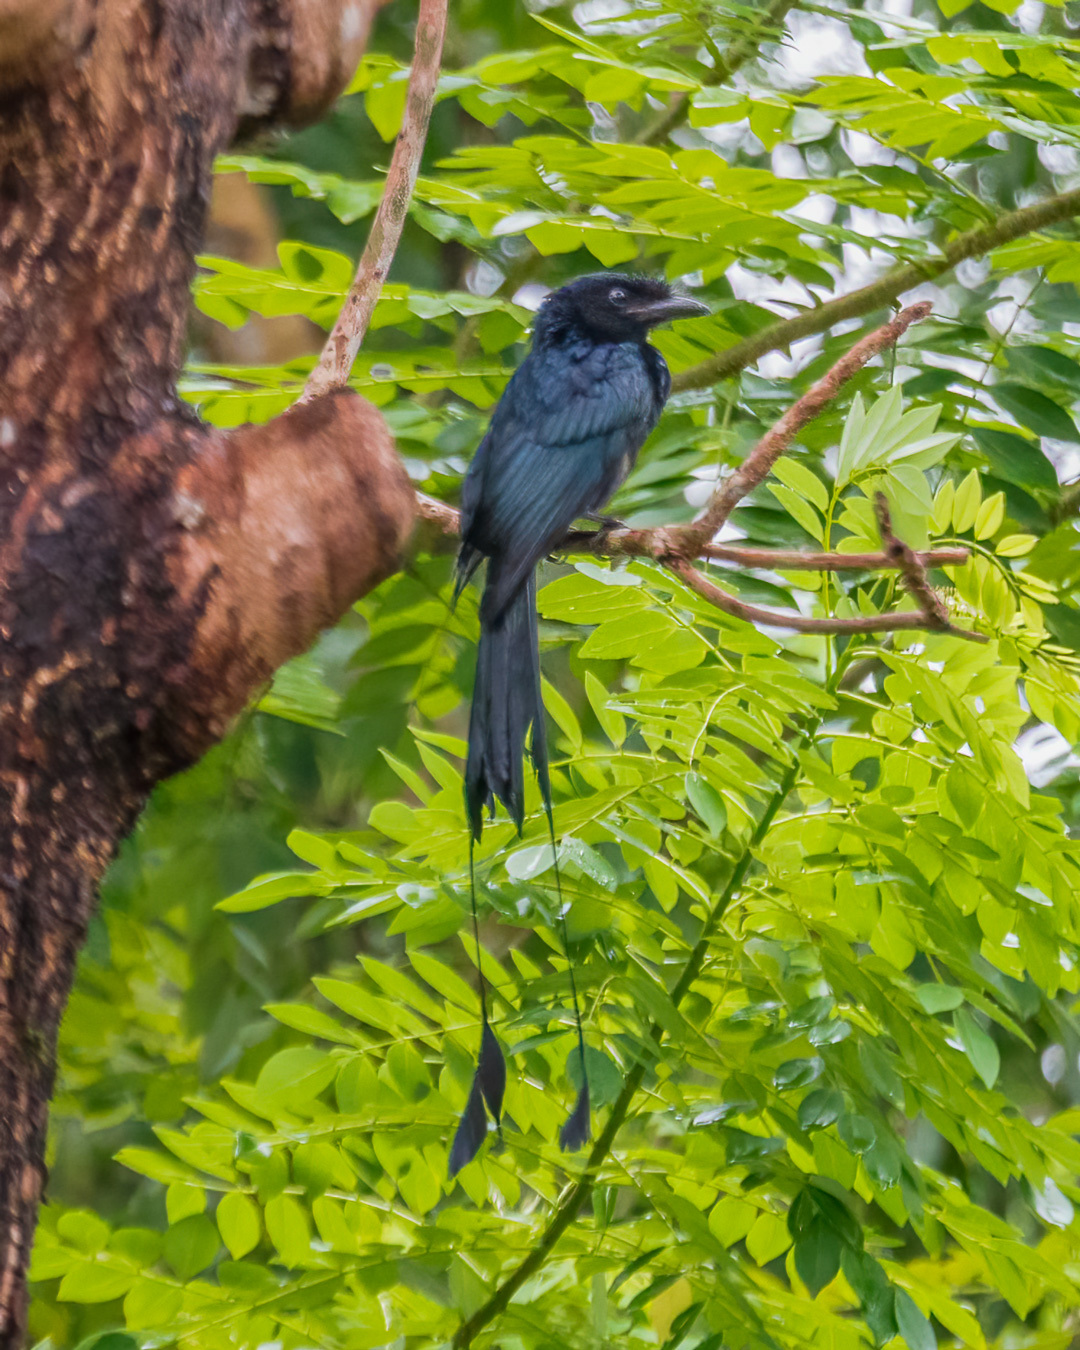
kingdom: Animalia
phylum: Chordata
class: Aves
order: Passeriformes
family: Dicruridae
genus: Dicrurus
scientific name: Dicrurus paradiseus
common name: Greater racket-tailed drongo
